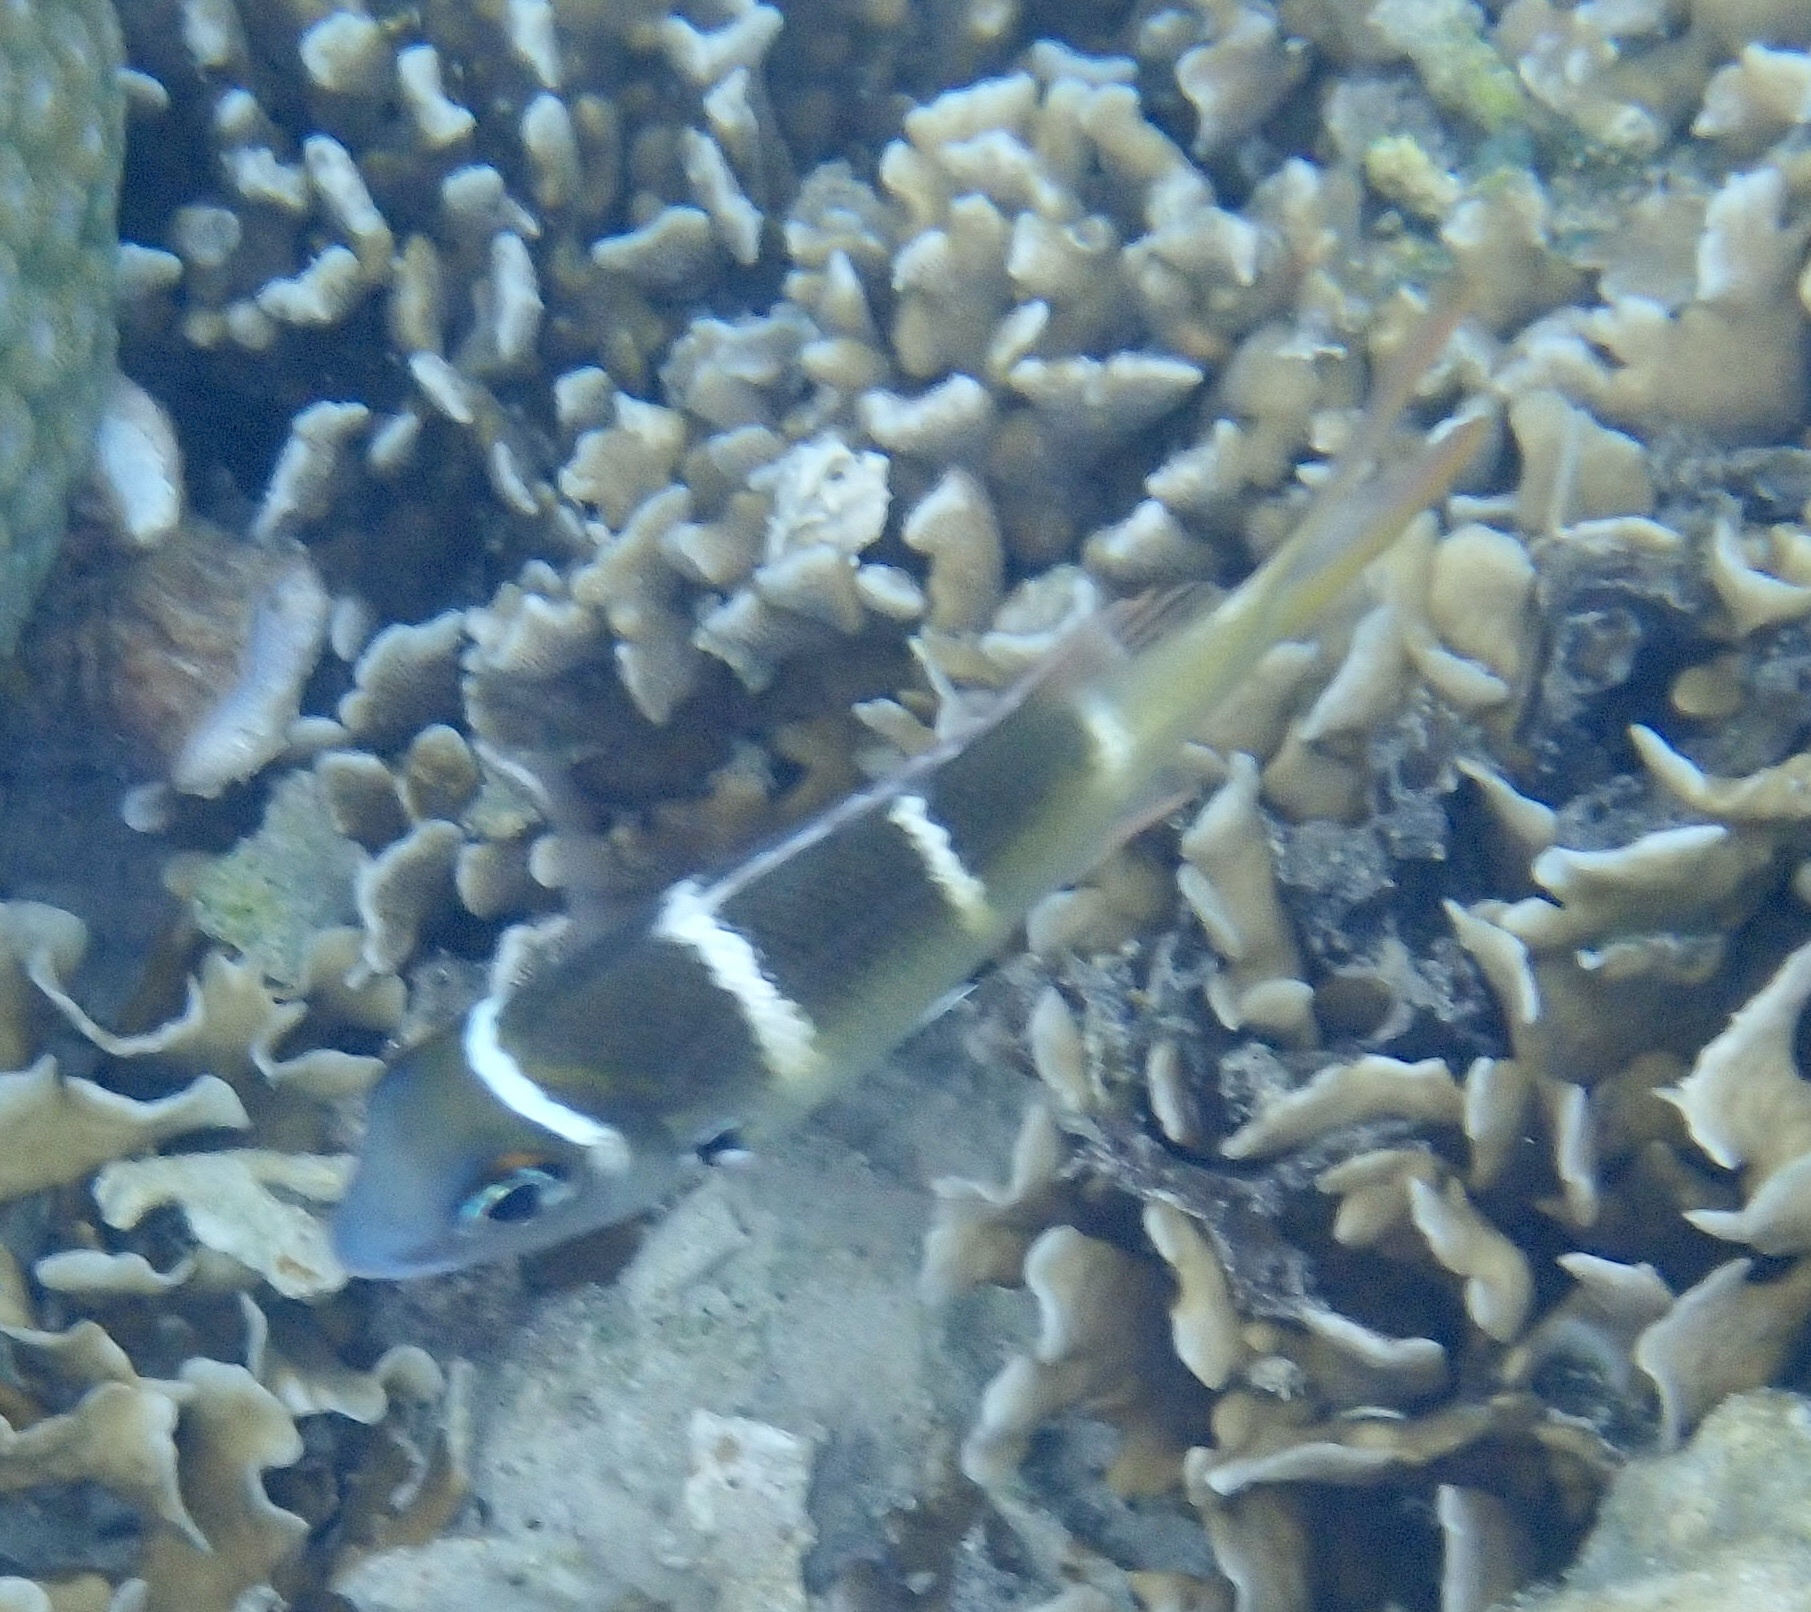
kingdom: Animalia
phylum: Chordata
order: Perciformes
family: Lethrinidae
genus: Monotaxis
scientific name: Monotaxis heterodon
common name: Redfin emperor
